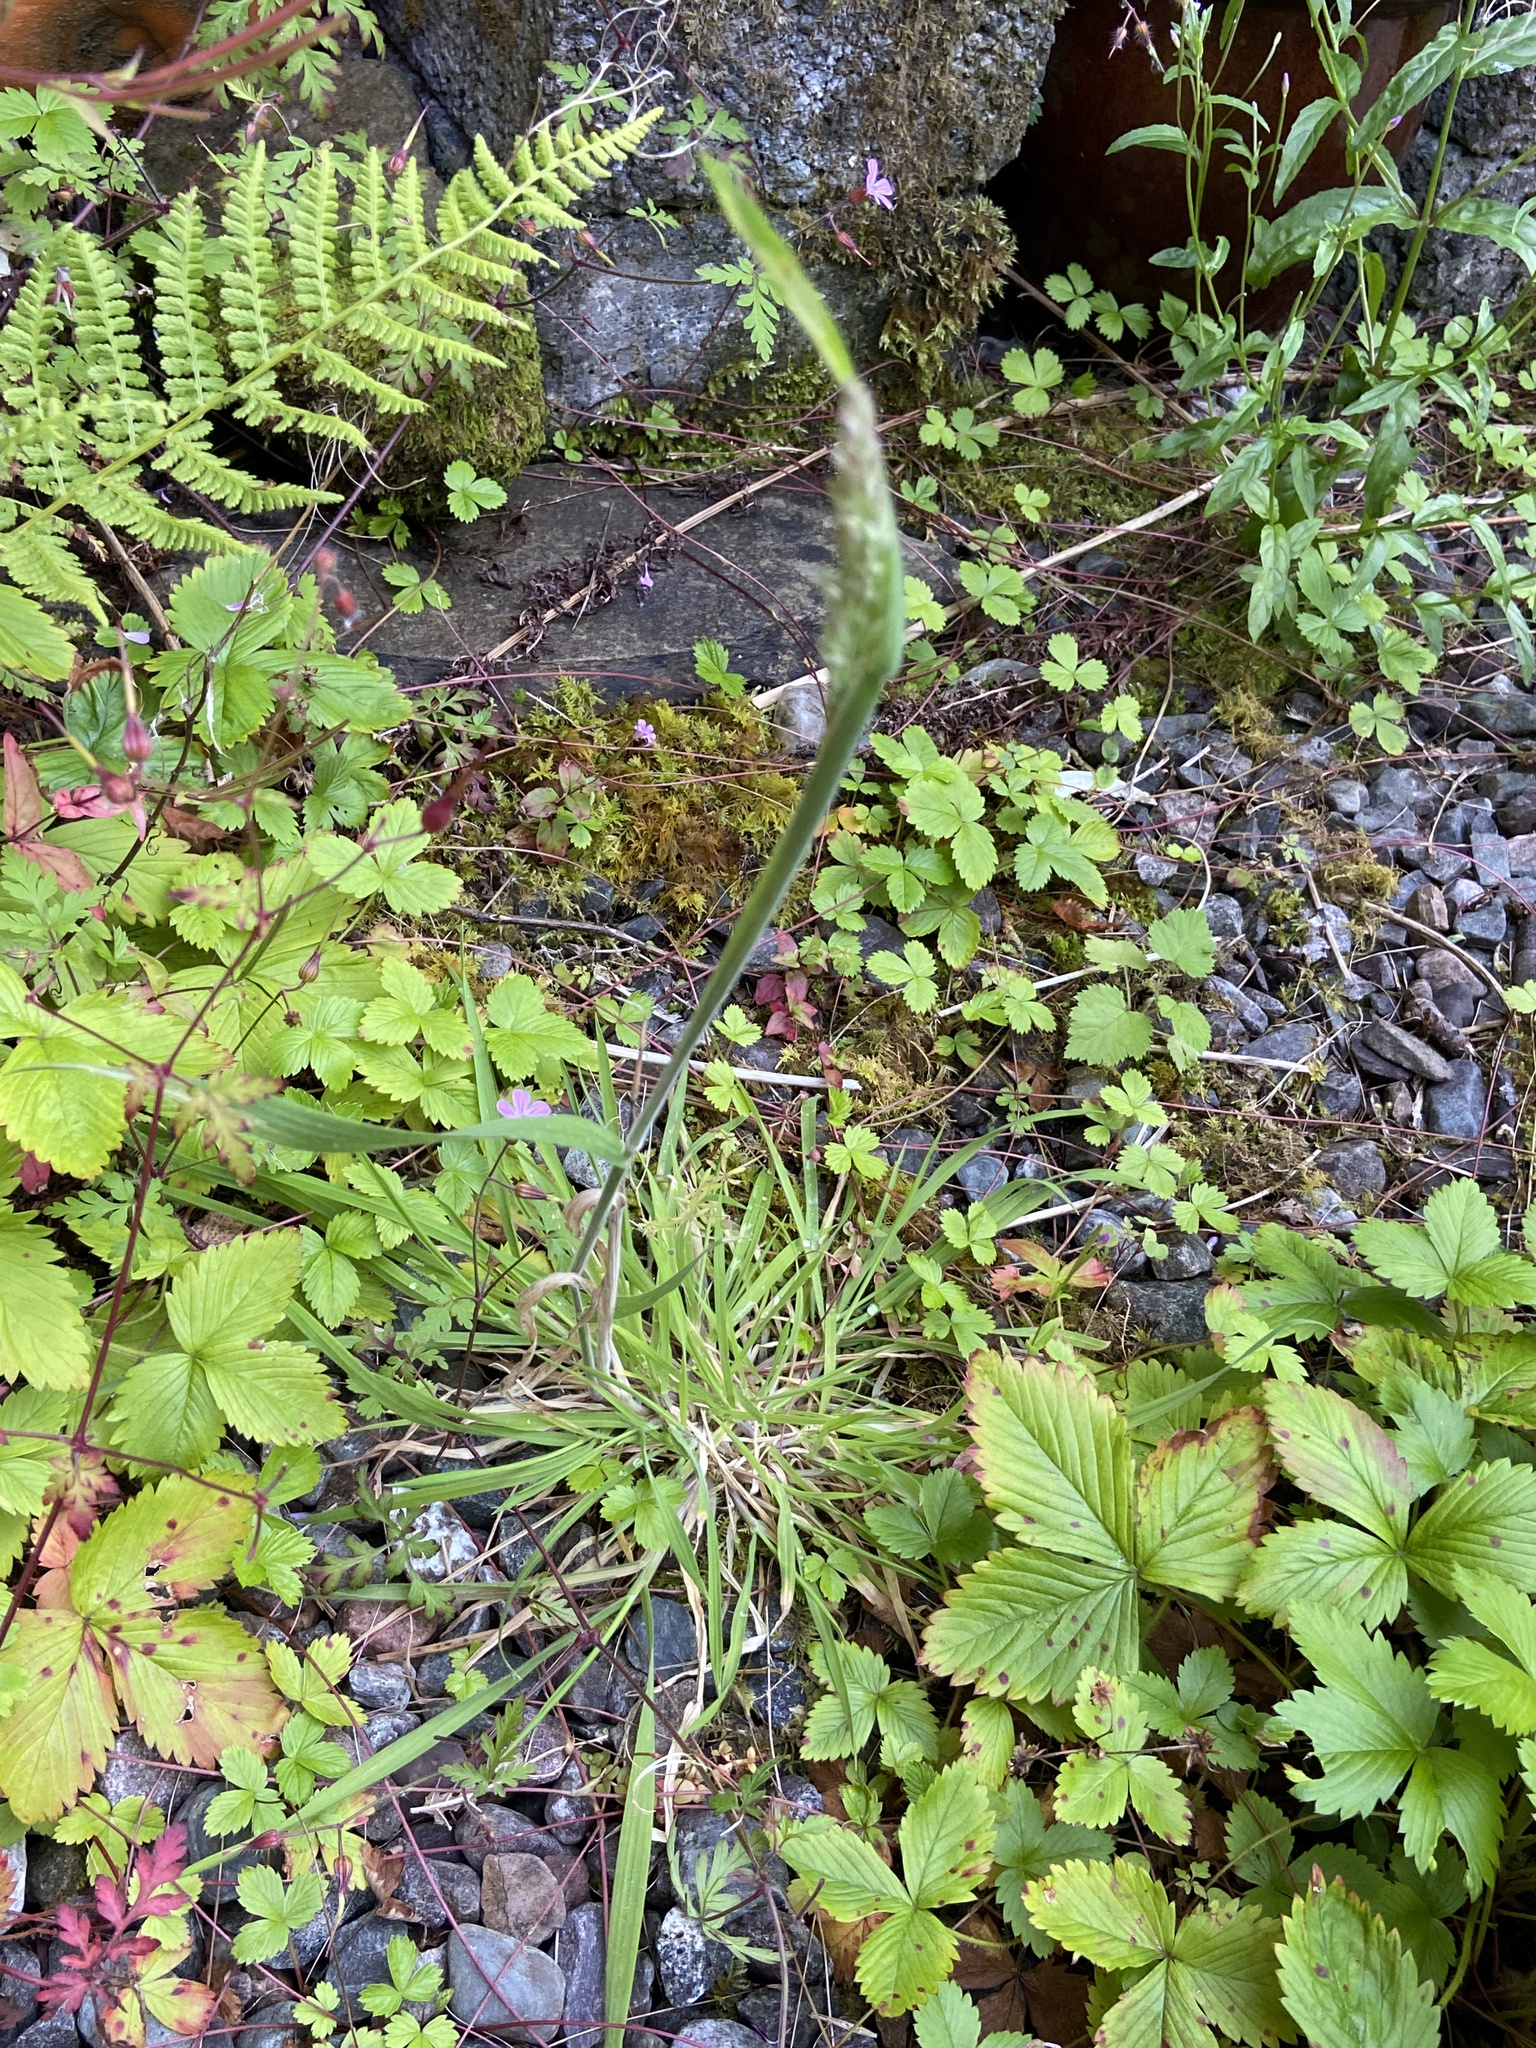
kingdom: Plantae
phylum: Tracheophyta
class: Liliopsida
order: Poales
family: Poaceae
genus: Holcus
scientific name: Holcus lanatus
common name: Yorkshire-fog
